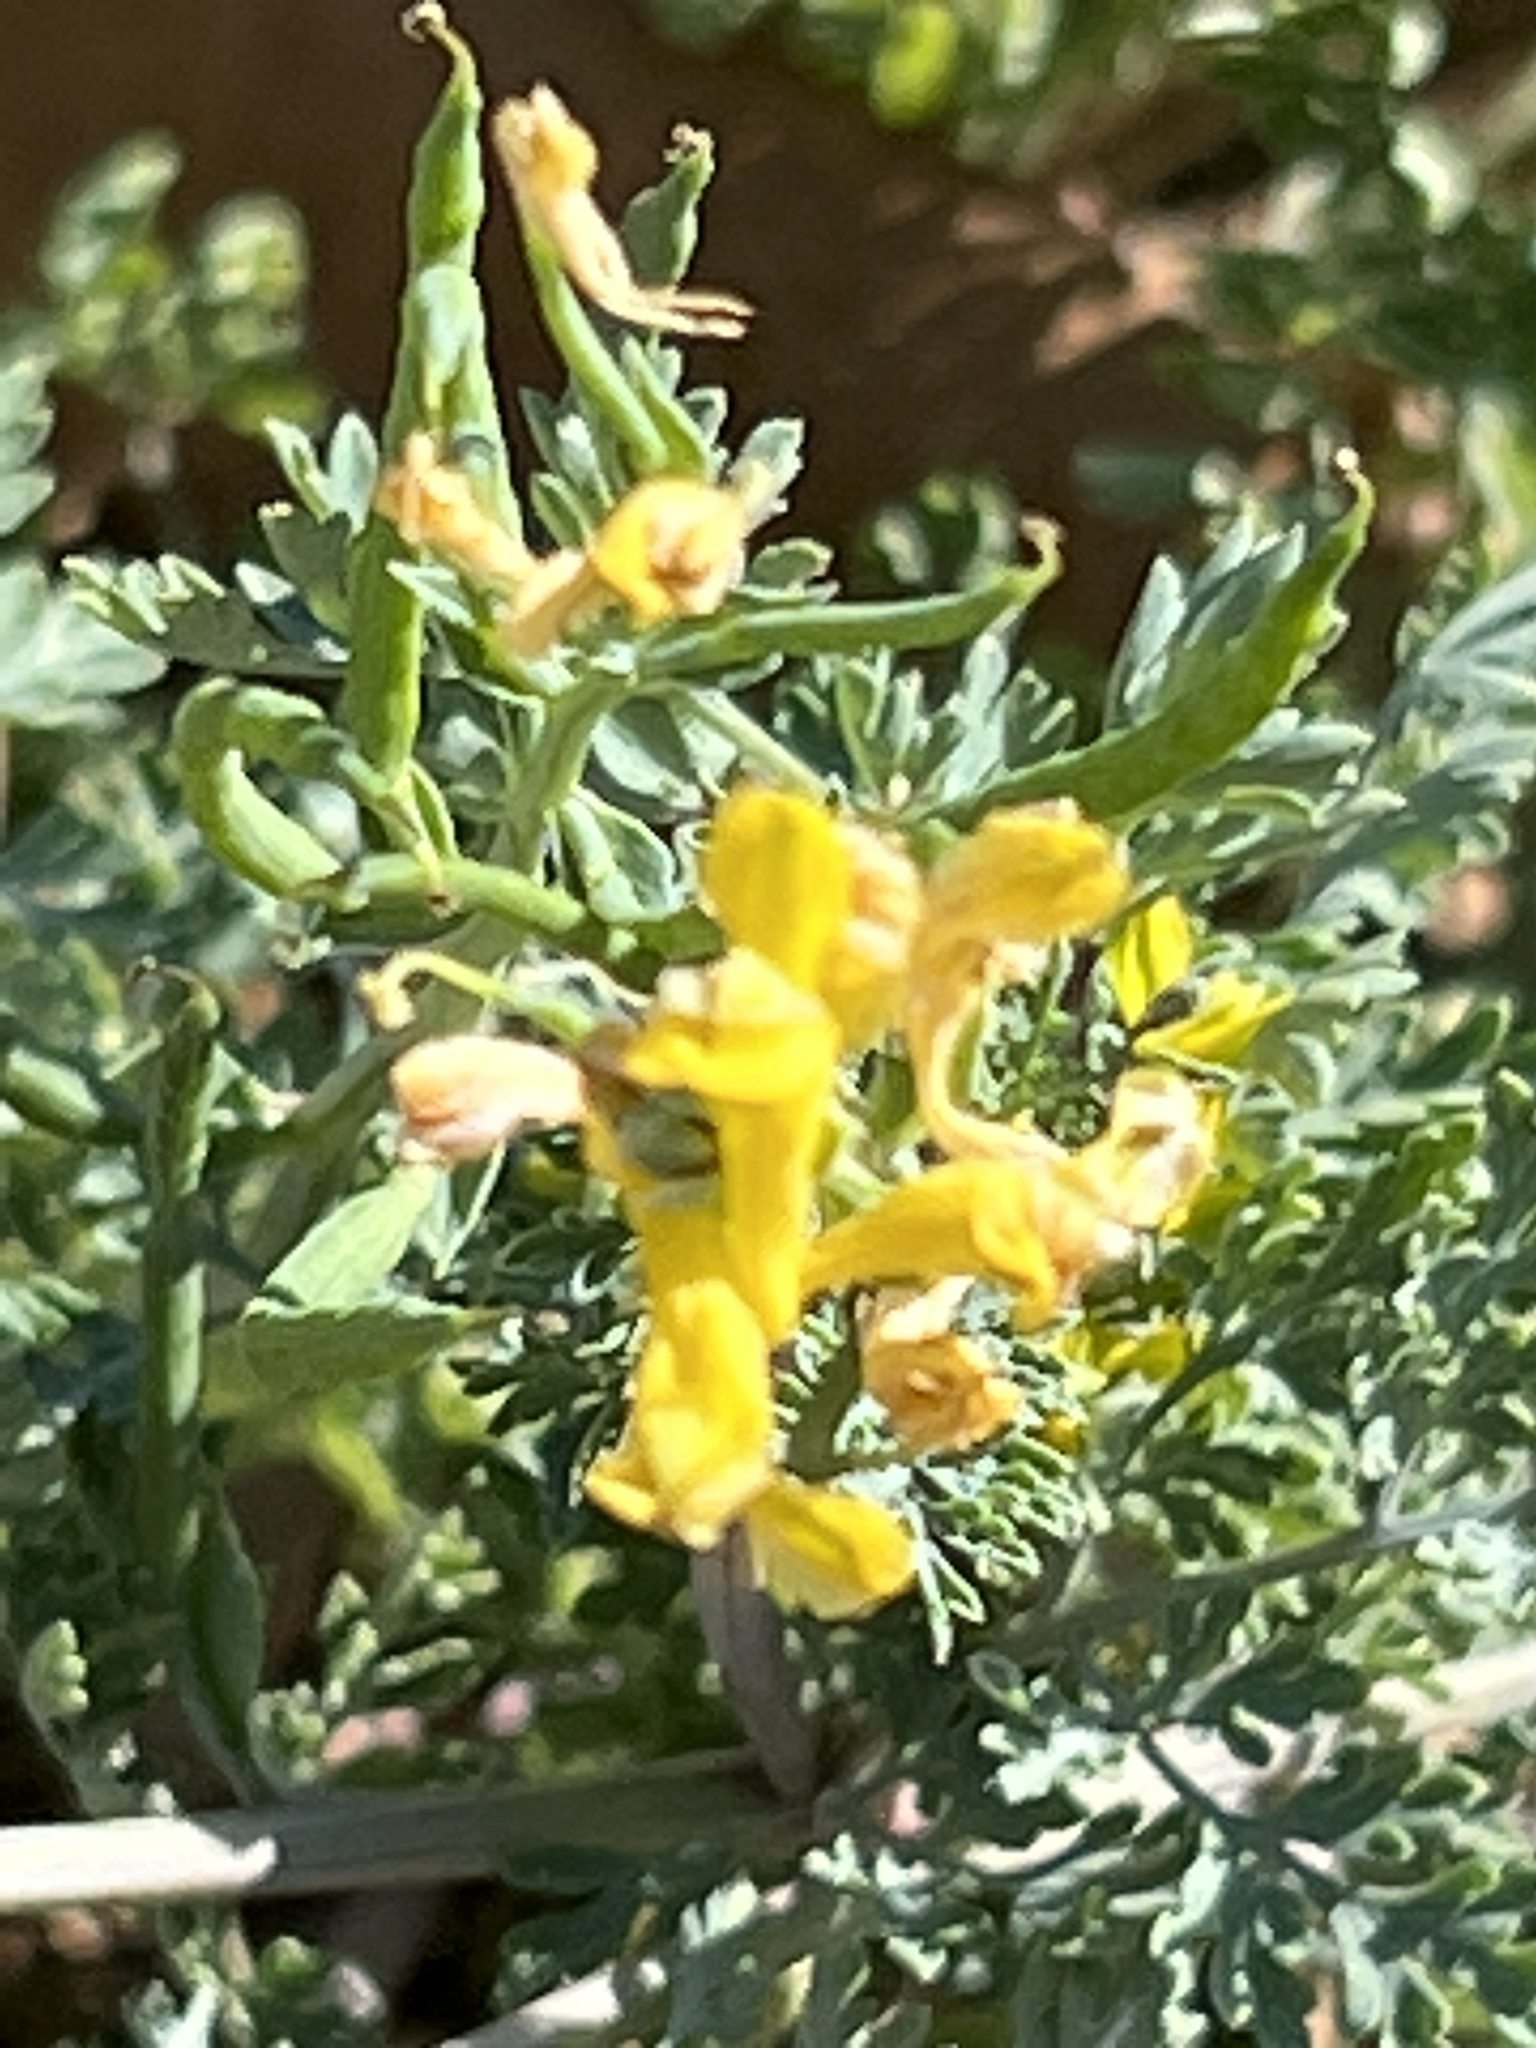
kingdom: Plantae
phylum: Tracheophyta
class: Magnoliopsida
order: Ranunculales
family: Papaveraceae
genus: Corydalis
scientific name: Corydalis aurea
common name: Golden corydalis
